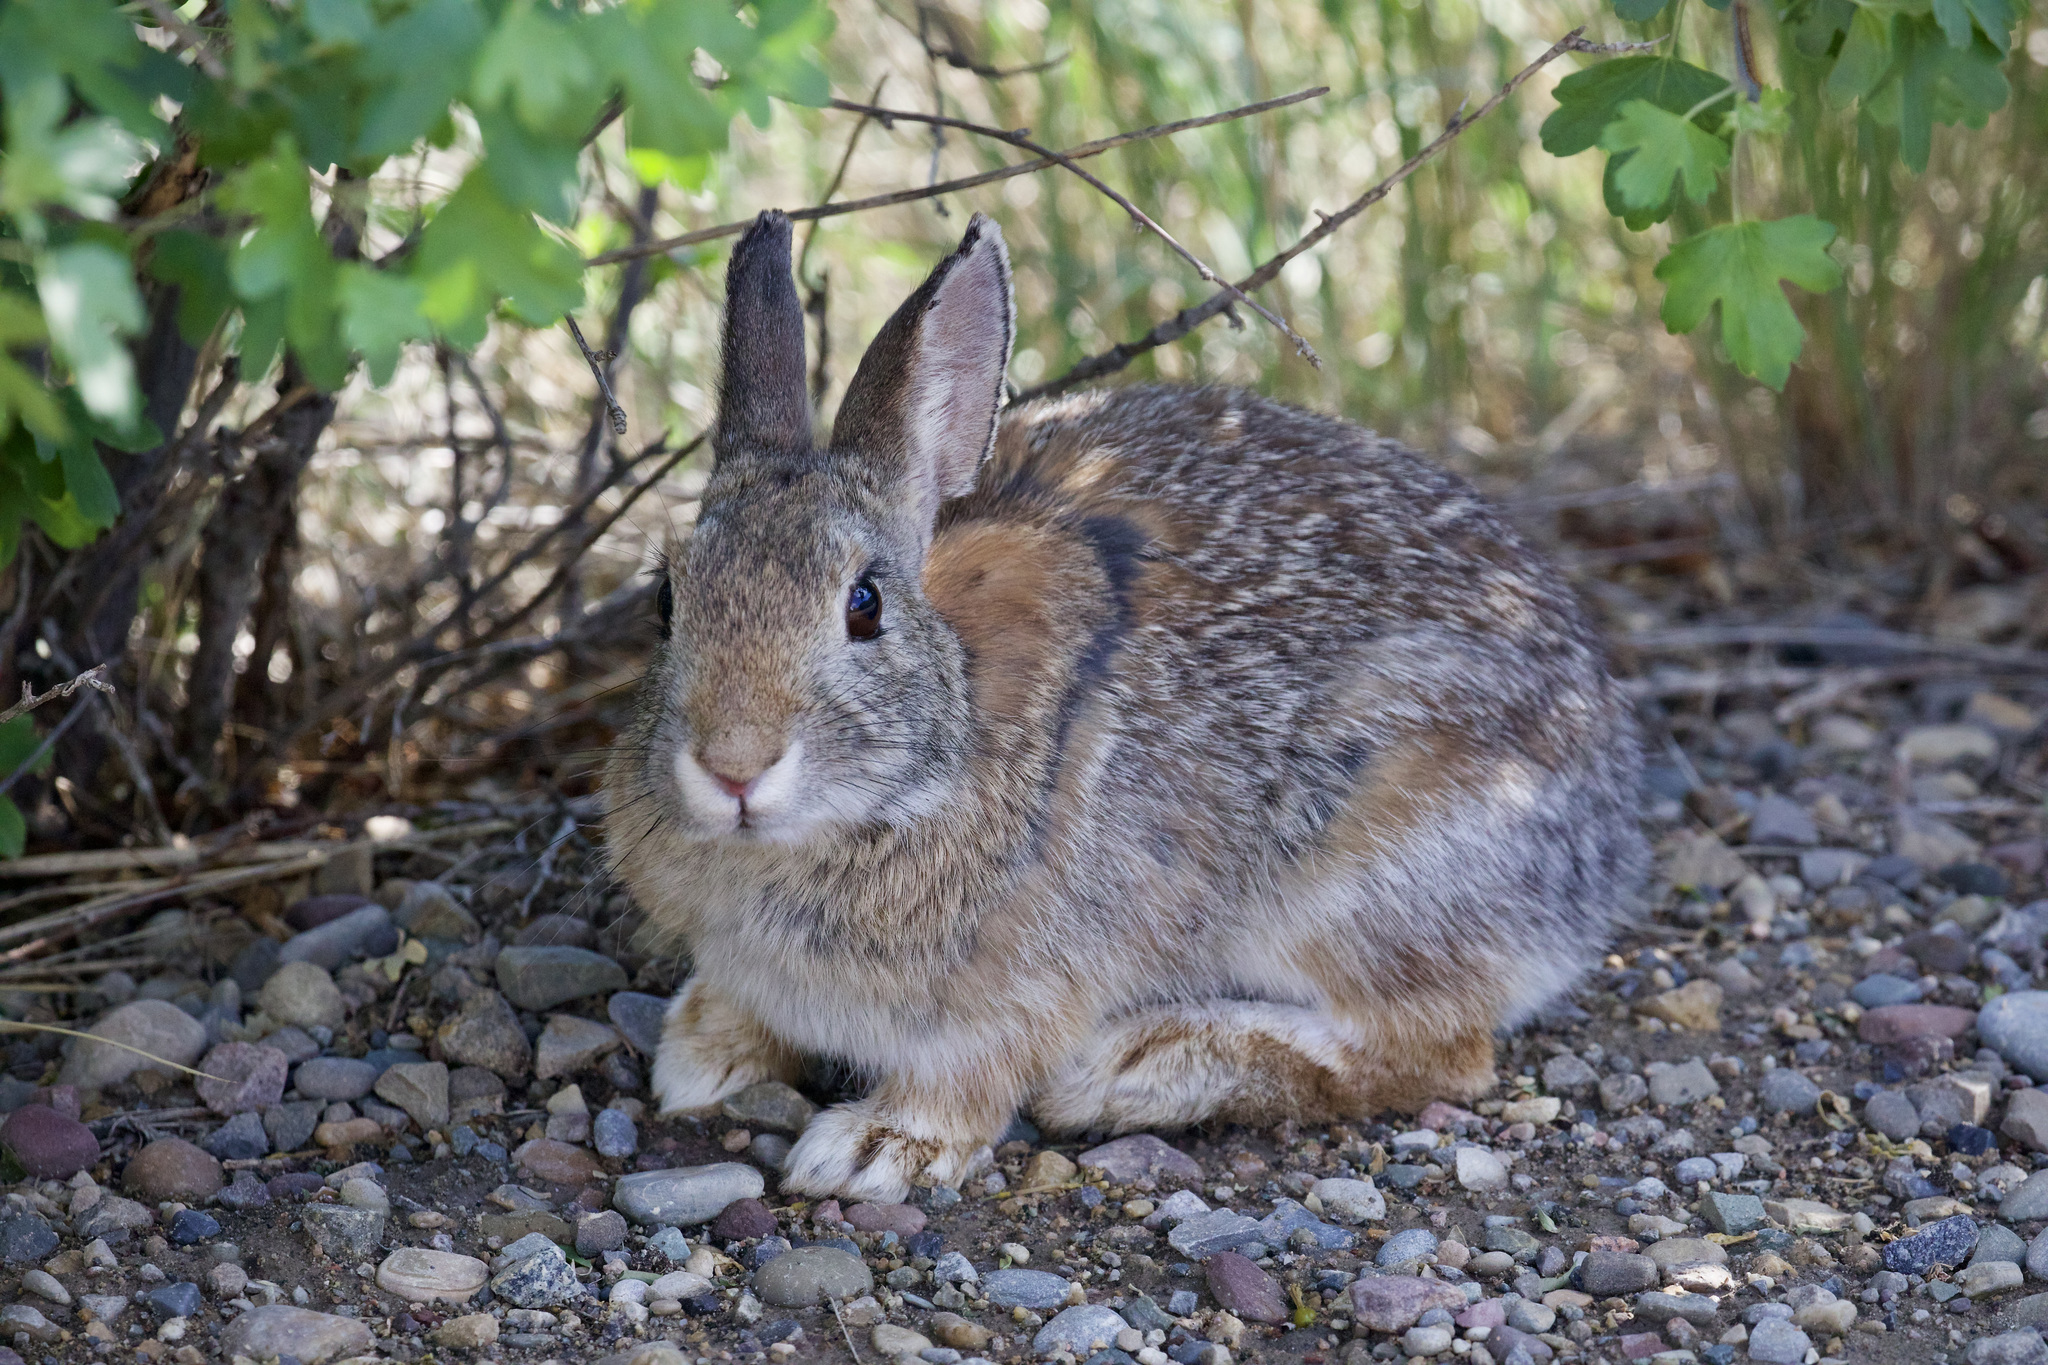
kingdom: Animalia
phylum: Chordata
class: Mammalia
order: Lagomorpha
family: Leporidae
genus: Sylvilagus
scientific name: Sylvilagus nuttallii
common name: Mountain cottontail
